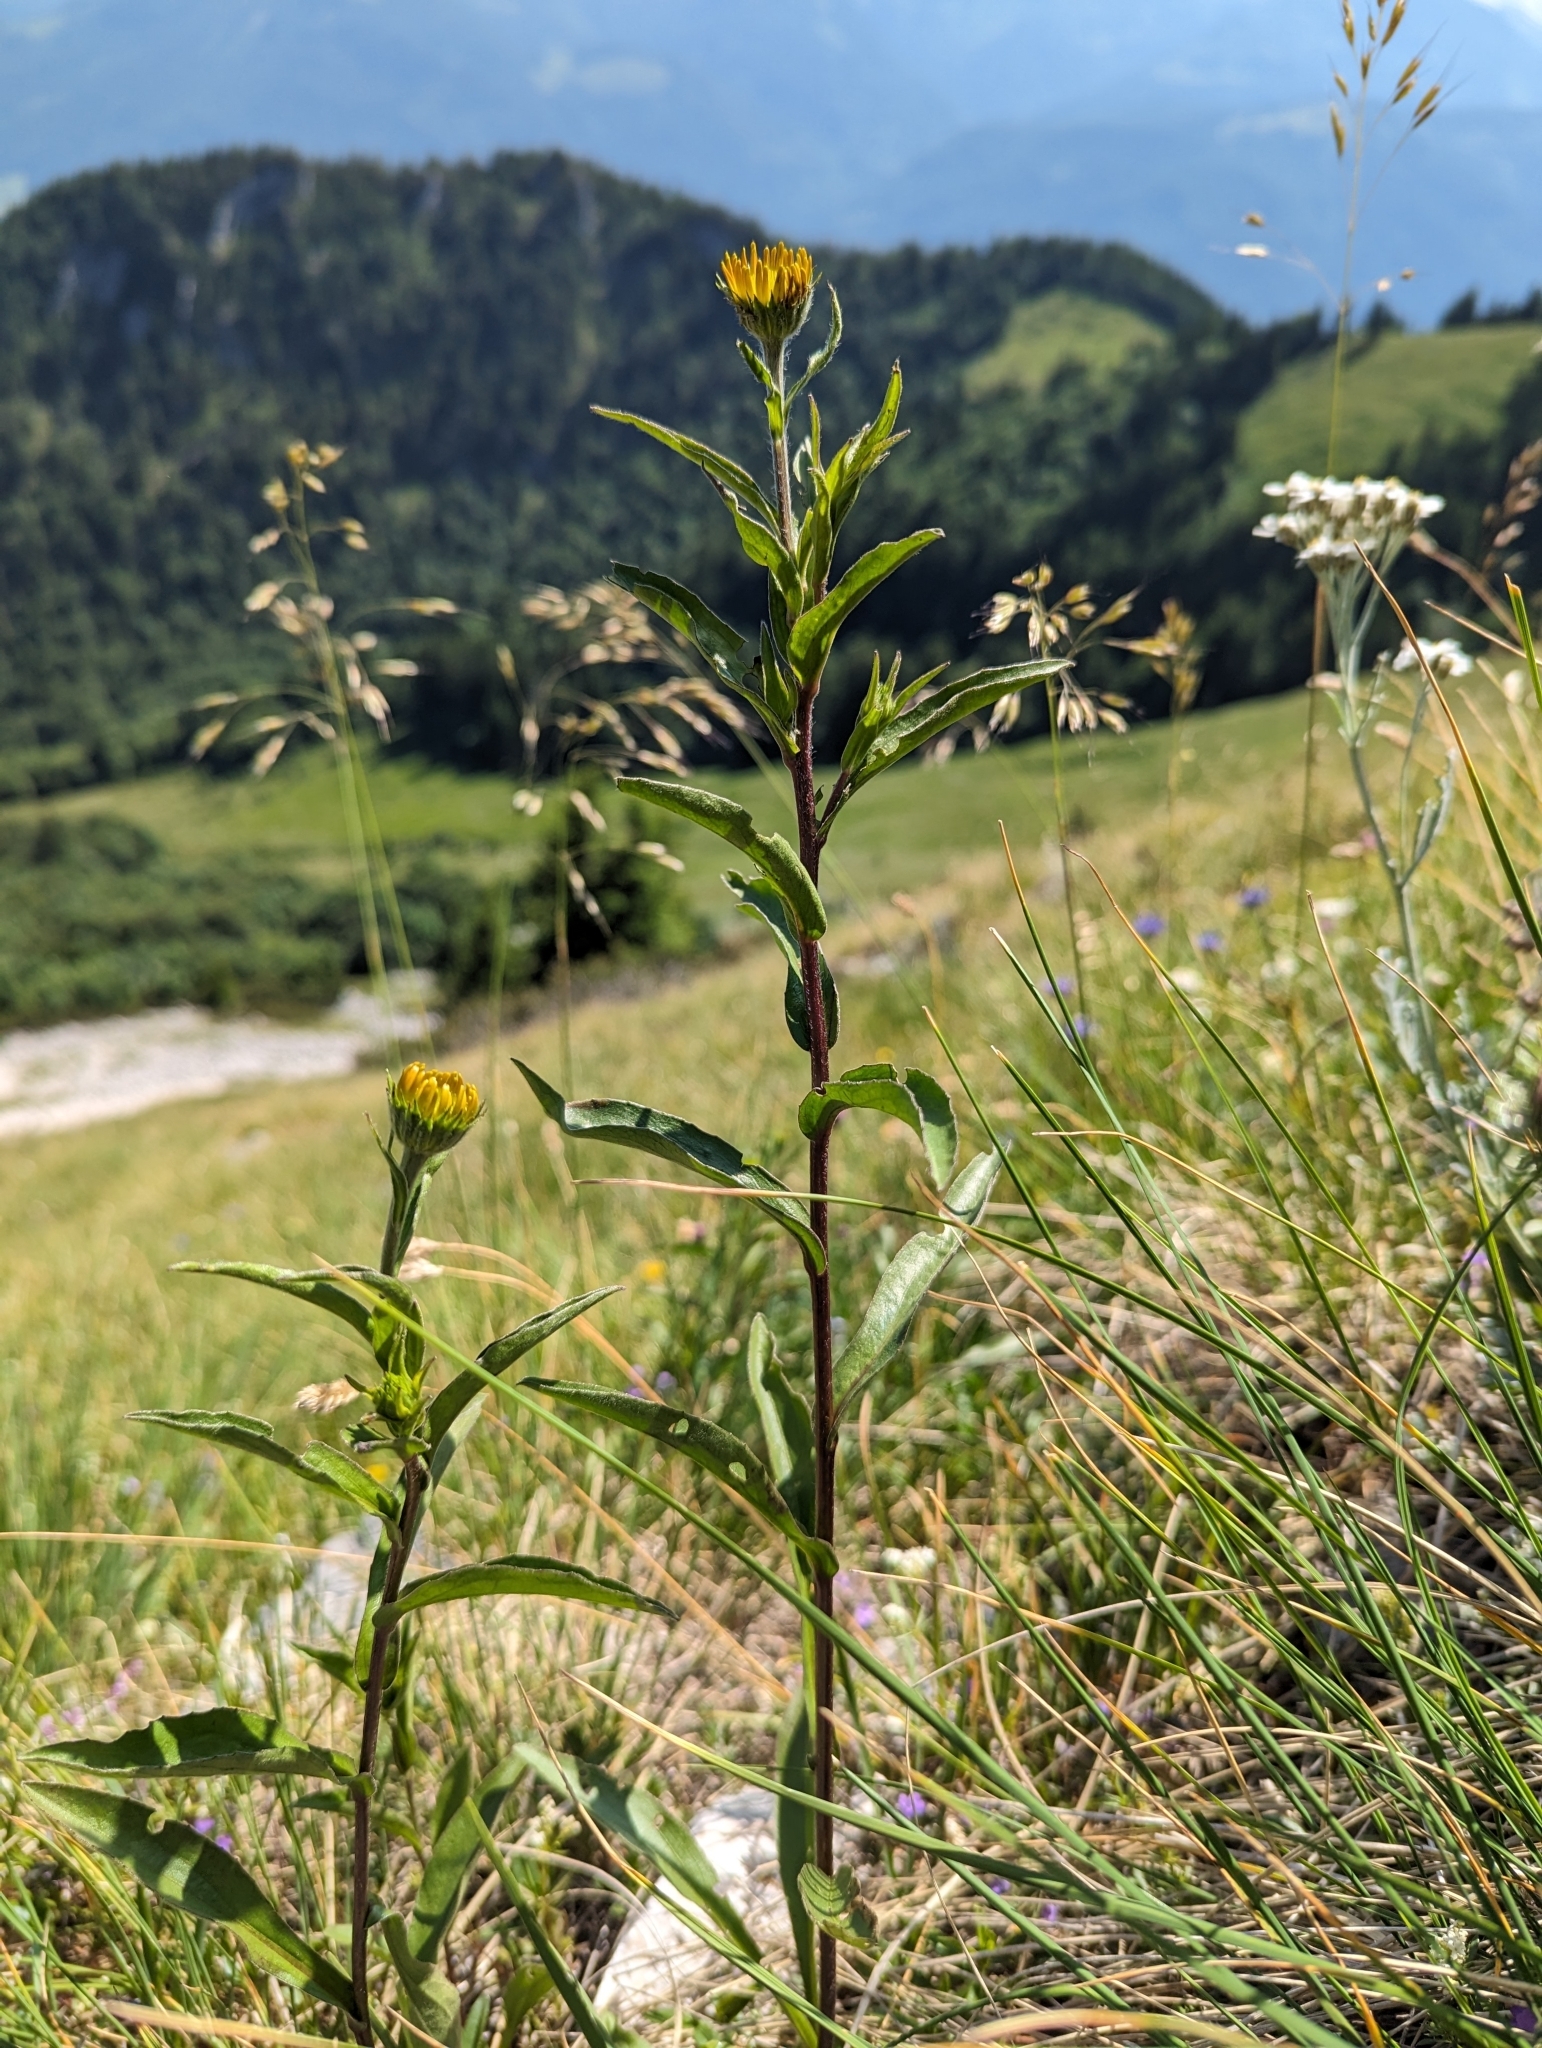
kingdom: Plantae
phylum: Tracheophyta
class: Magnoliopsida
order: Asterales
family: Asteraceae
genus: Buphthalmum
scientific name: Buphthalmum salicifolium
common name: Willow-leaved yellow-oxeye
